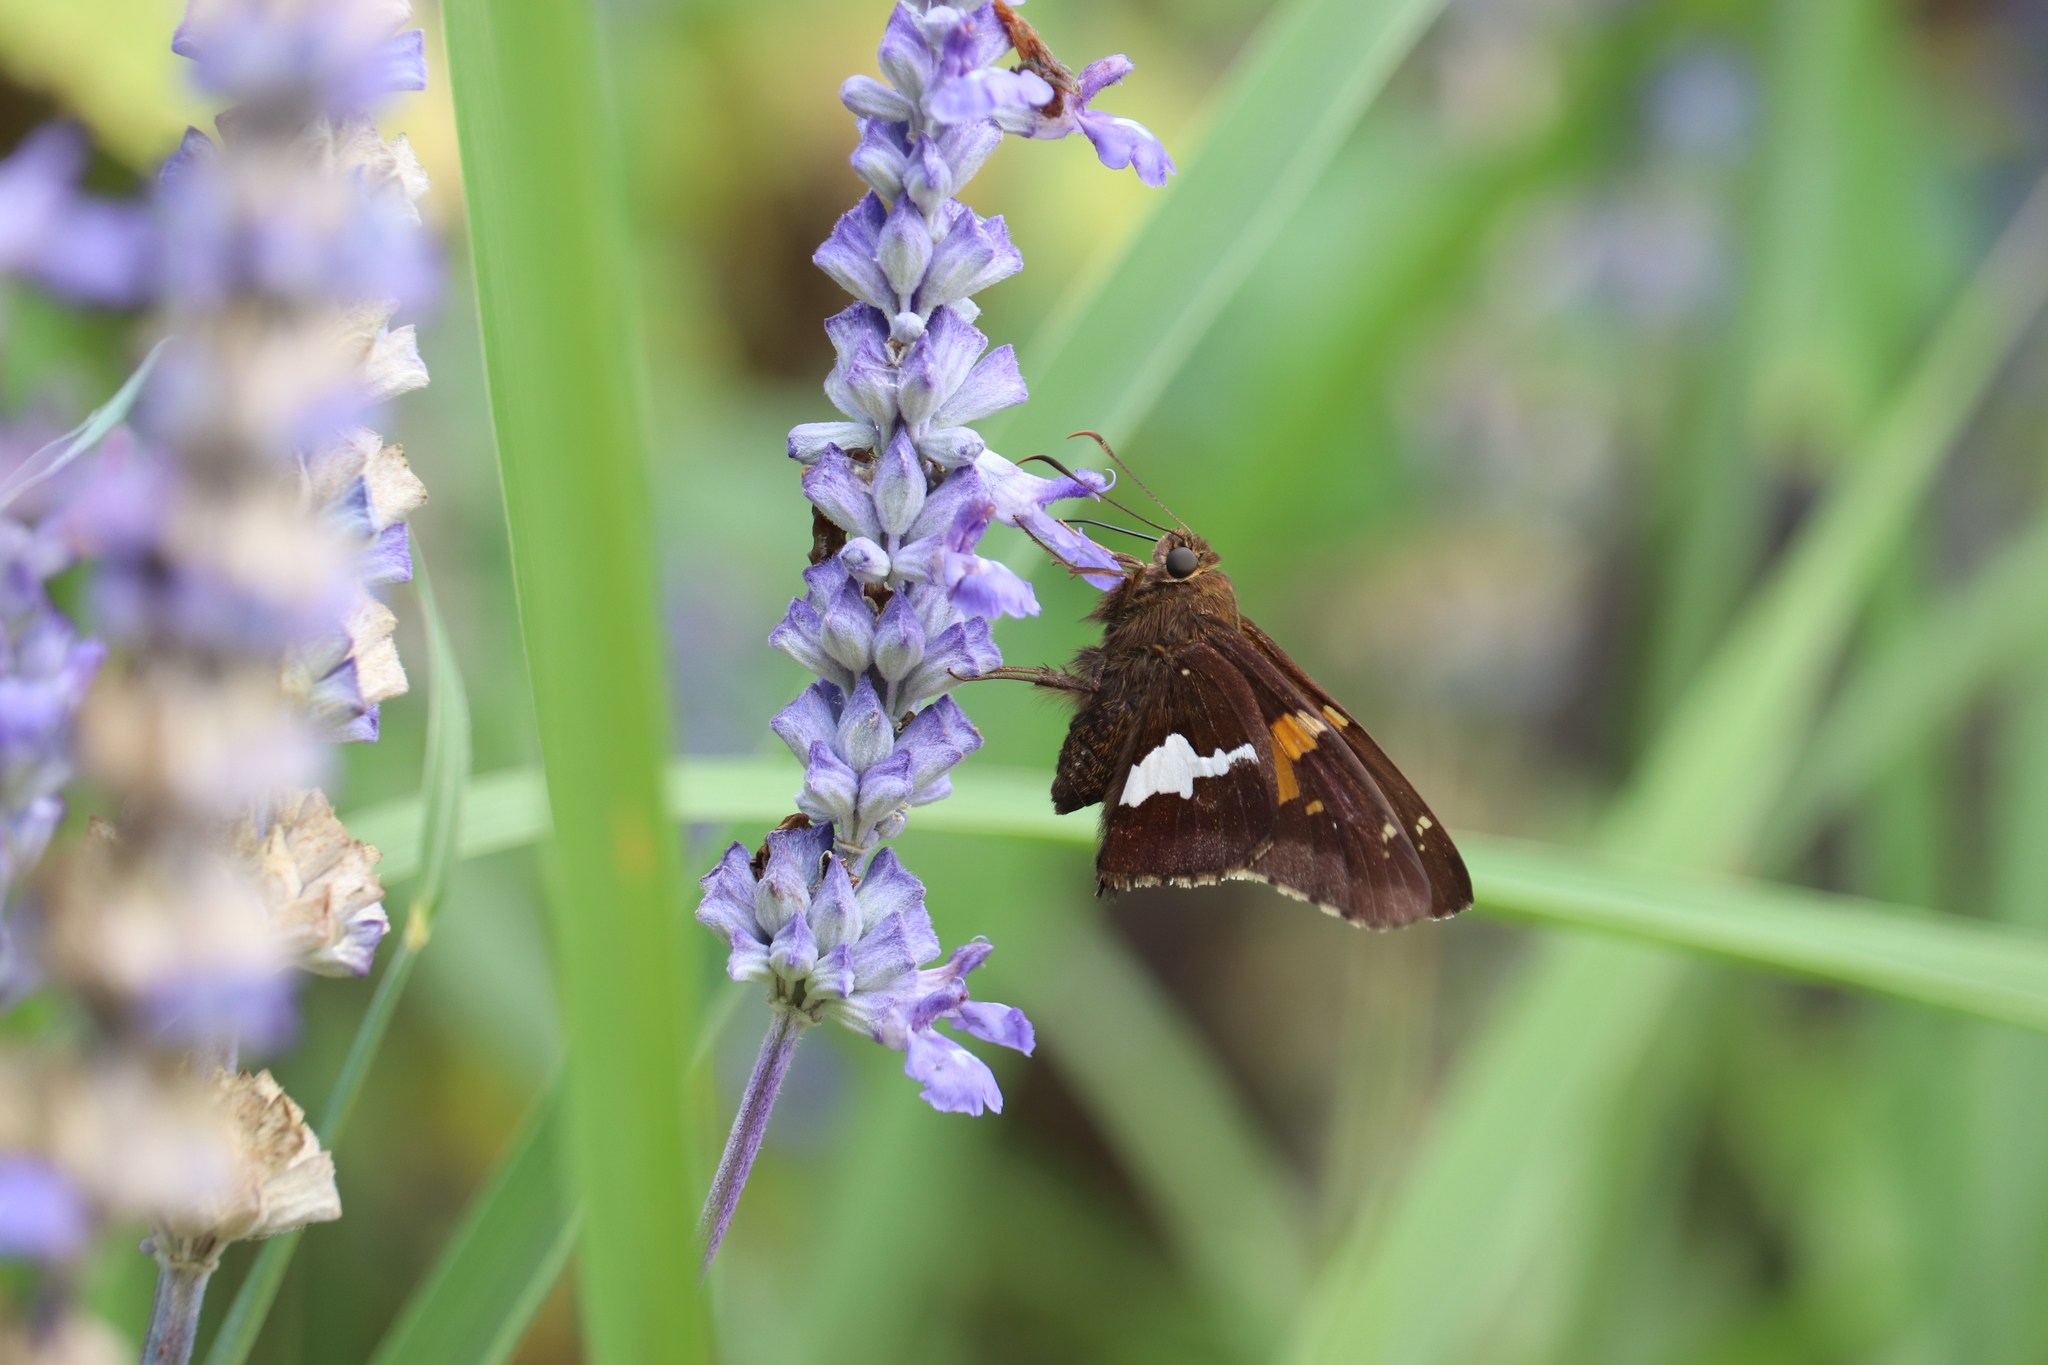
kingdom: Animalia
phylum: Arthropoda
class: Insecta
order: Lepidoptera
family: Hesperiidae
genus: Epargyreus
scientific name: Epargyreus clarus
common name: Silver-spotted skipper
